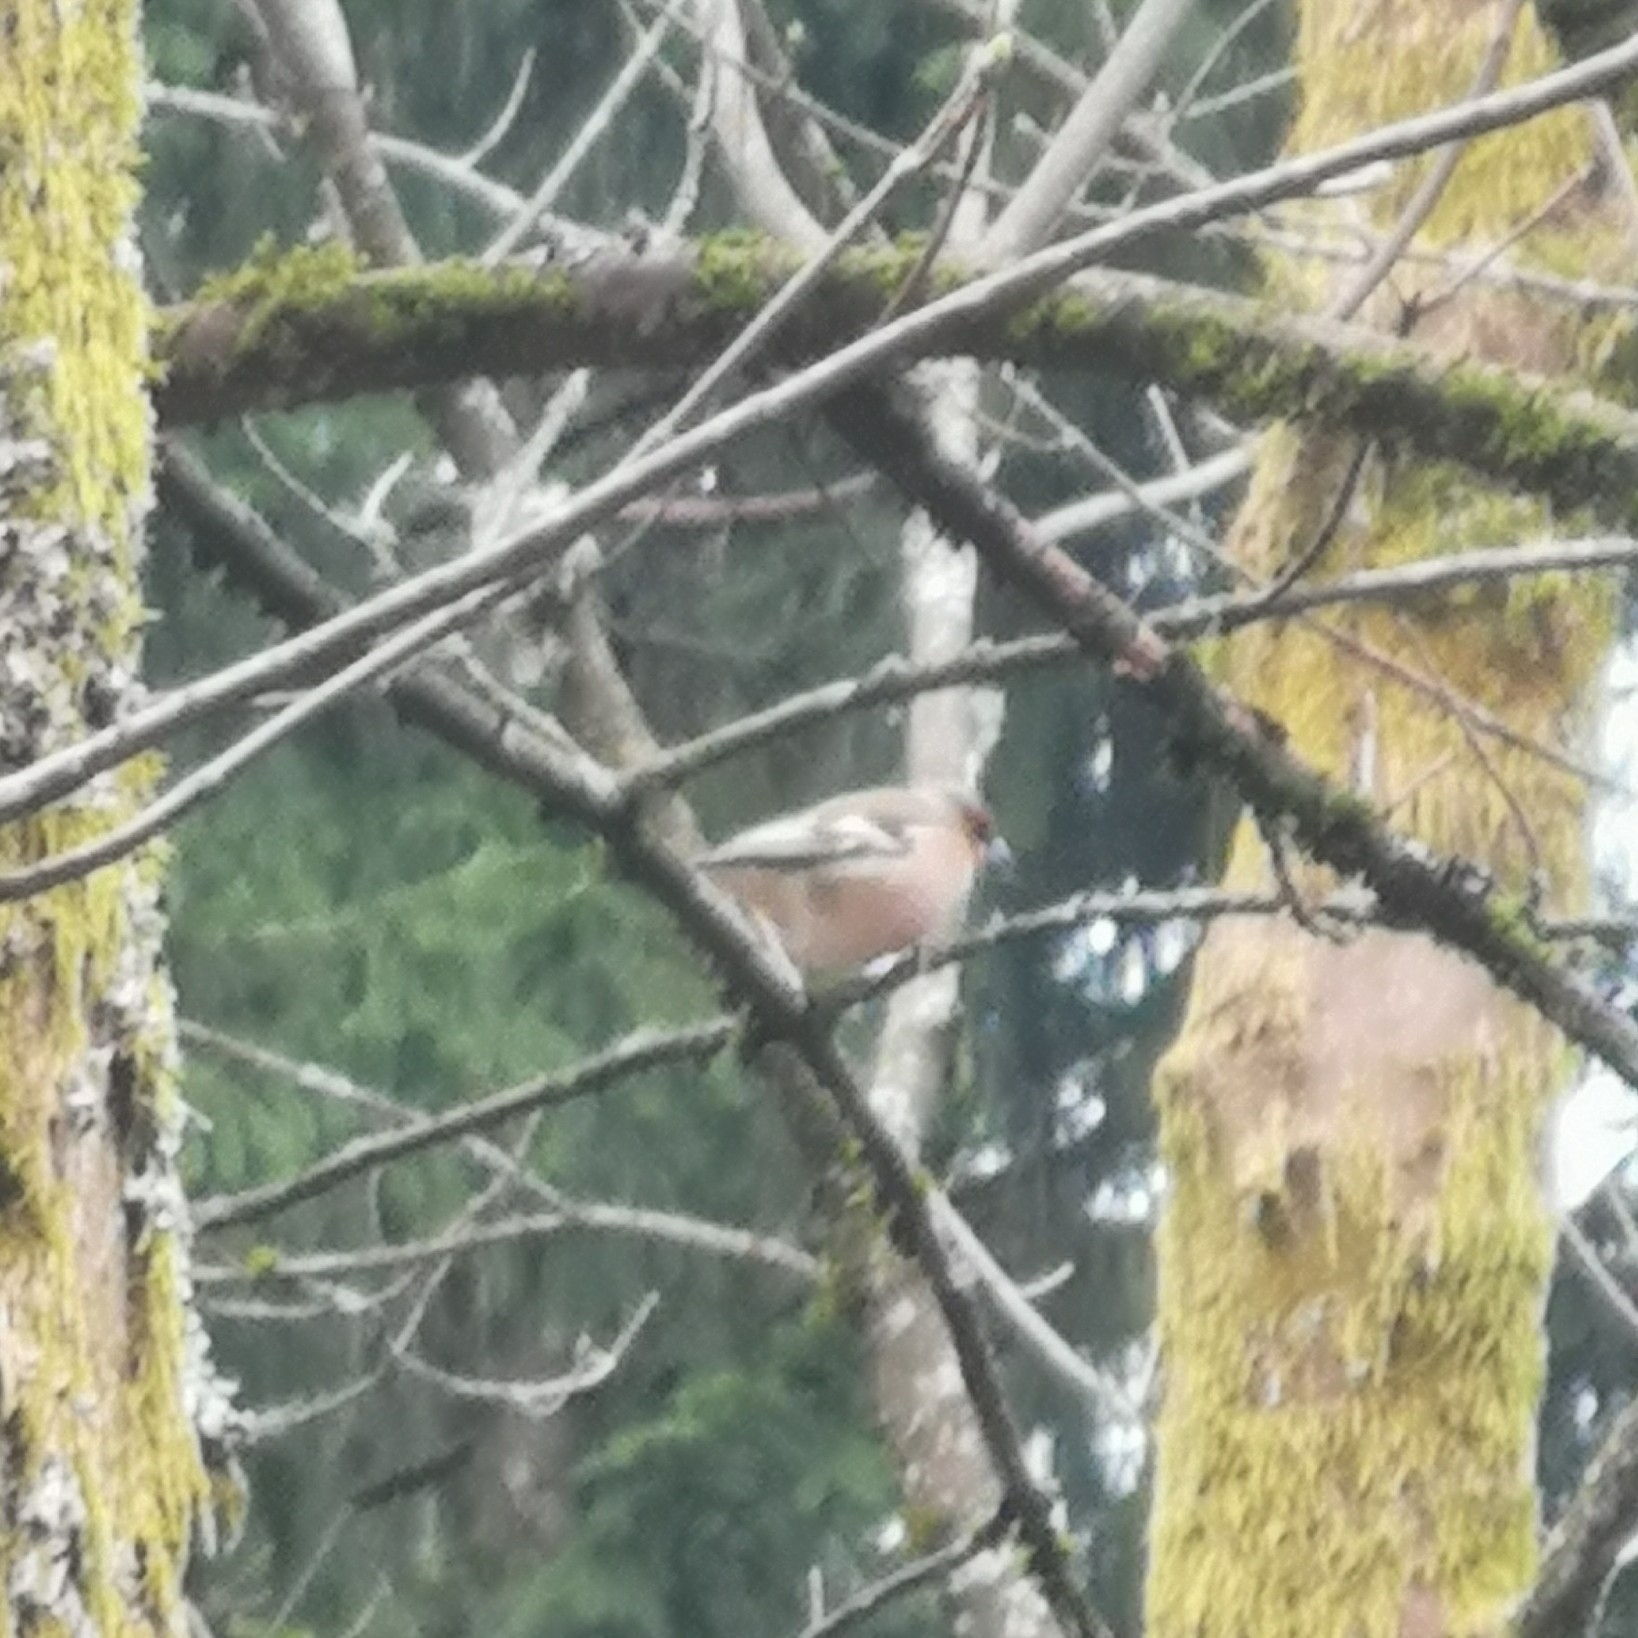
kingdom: Animalia
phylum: Chordata
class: Aves
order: Passeriformes
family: Fringillidae
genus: Fringilla
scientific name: Fringilla coelebs
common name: Common chaffinch
